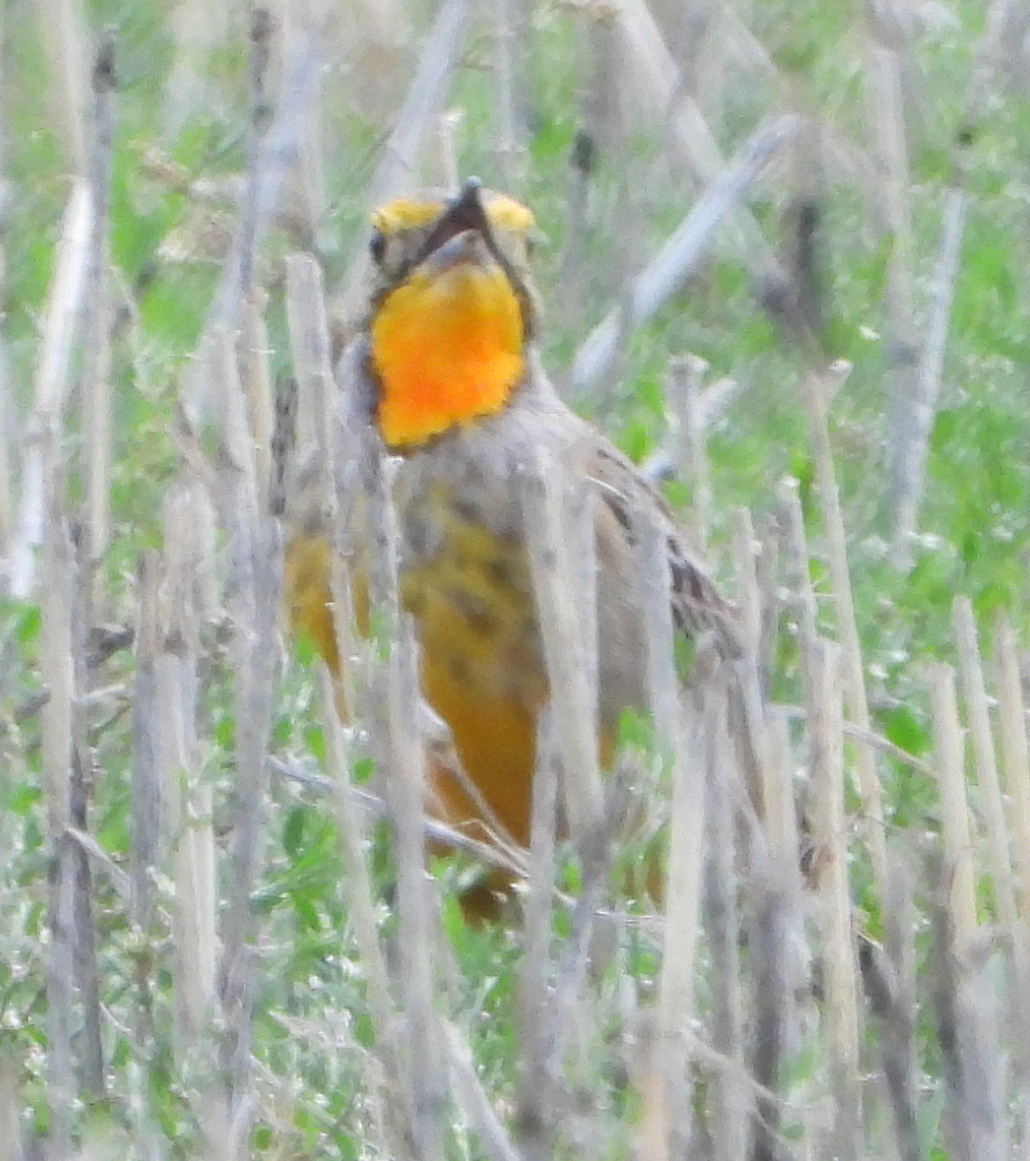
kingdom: Animalia
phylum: Chordata
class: Aves
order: Passeriformes
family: Motacillidae
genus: Macronyx
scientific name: Macronyx capensis
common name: Cape longclaw
